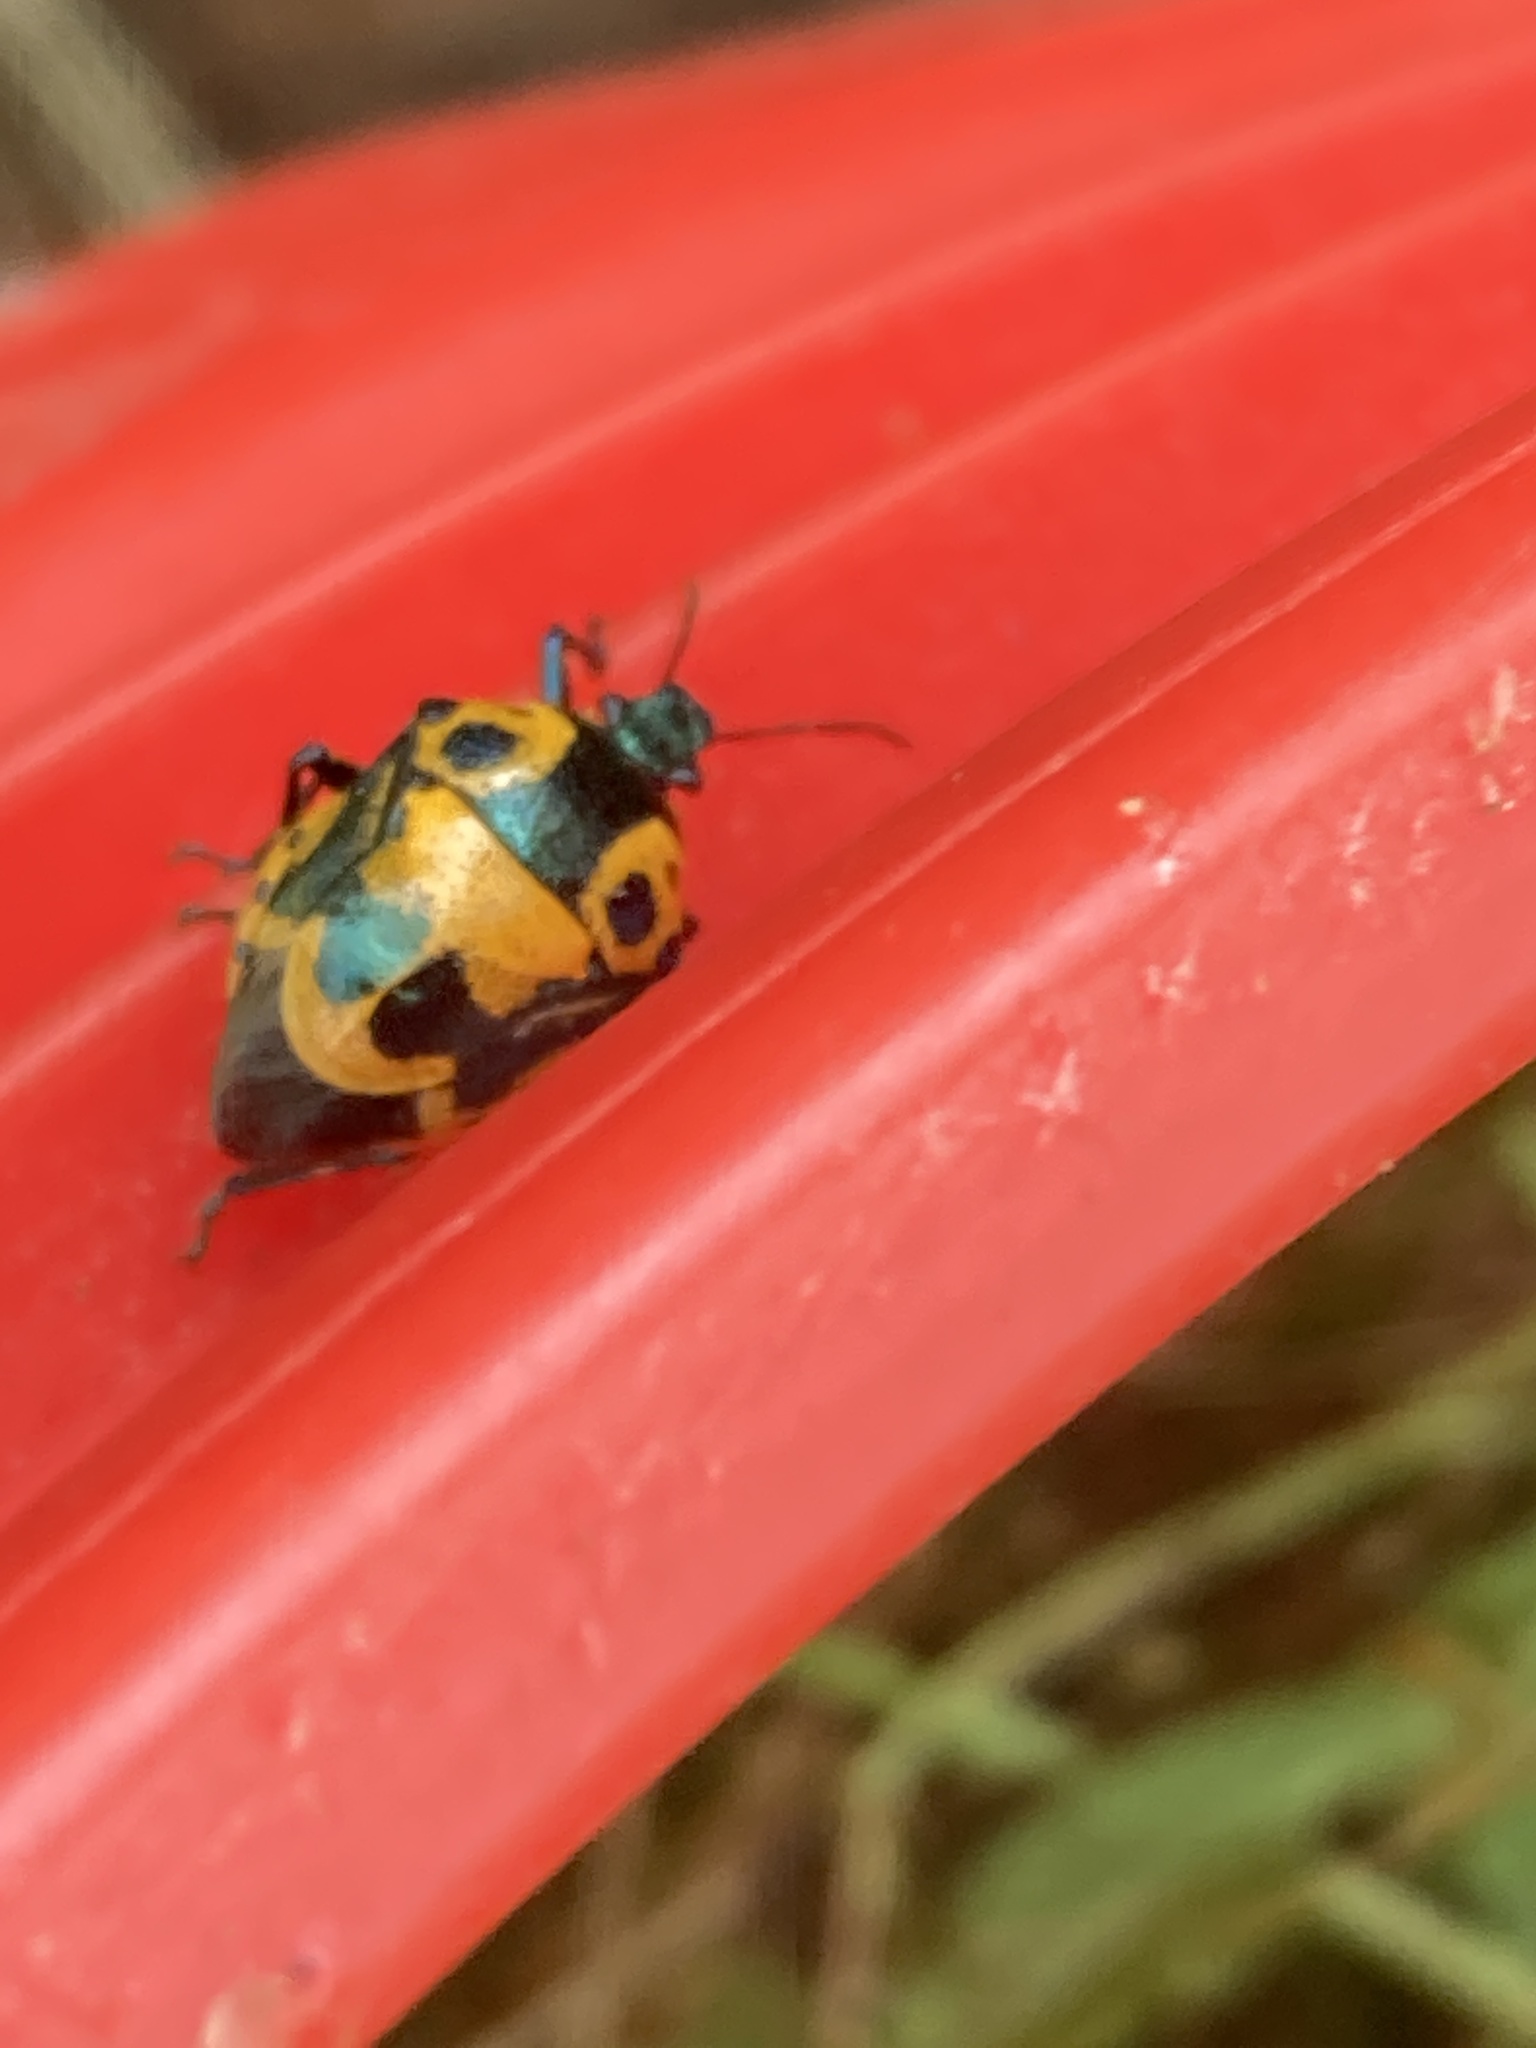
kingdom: Animalia
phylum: Arthropoda
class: Insecta
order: Hemiptera
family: Pentatomidae
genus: Stiretrus
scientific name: Stiretrus anchorago
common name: Anchor stink bug
